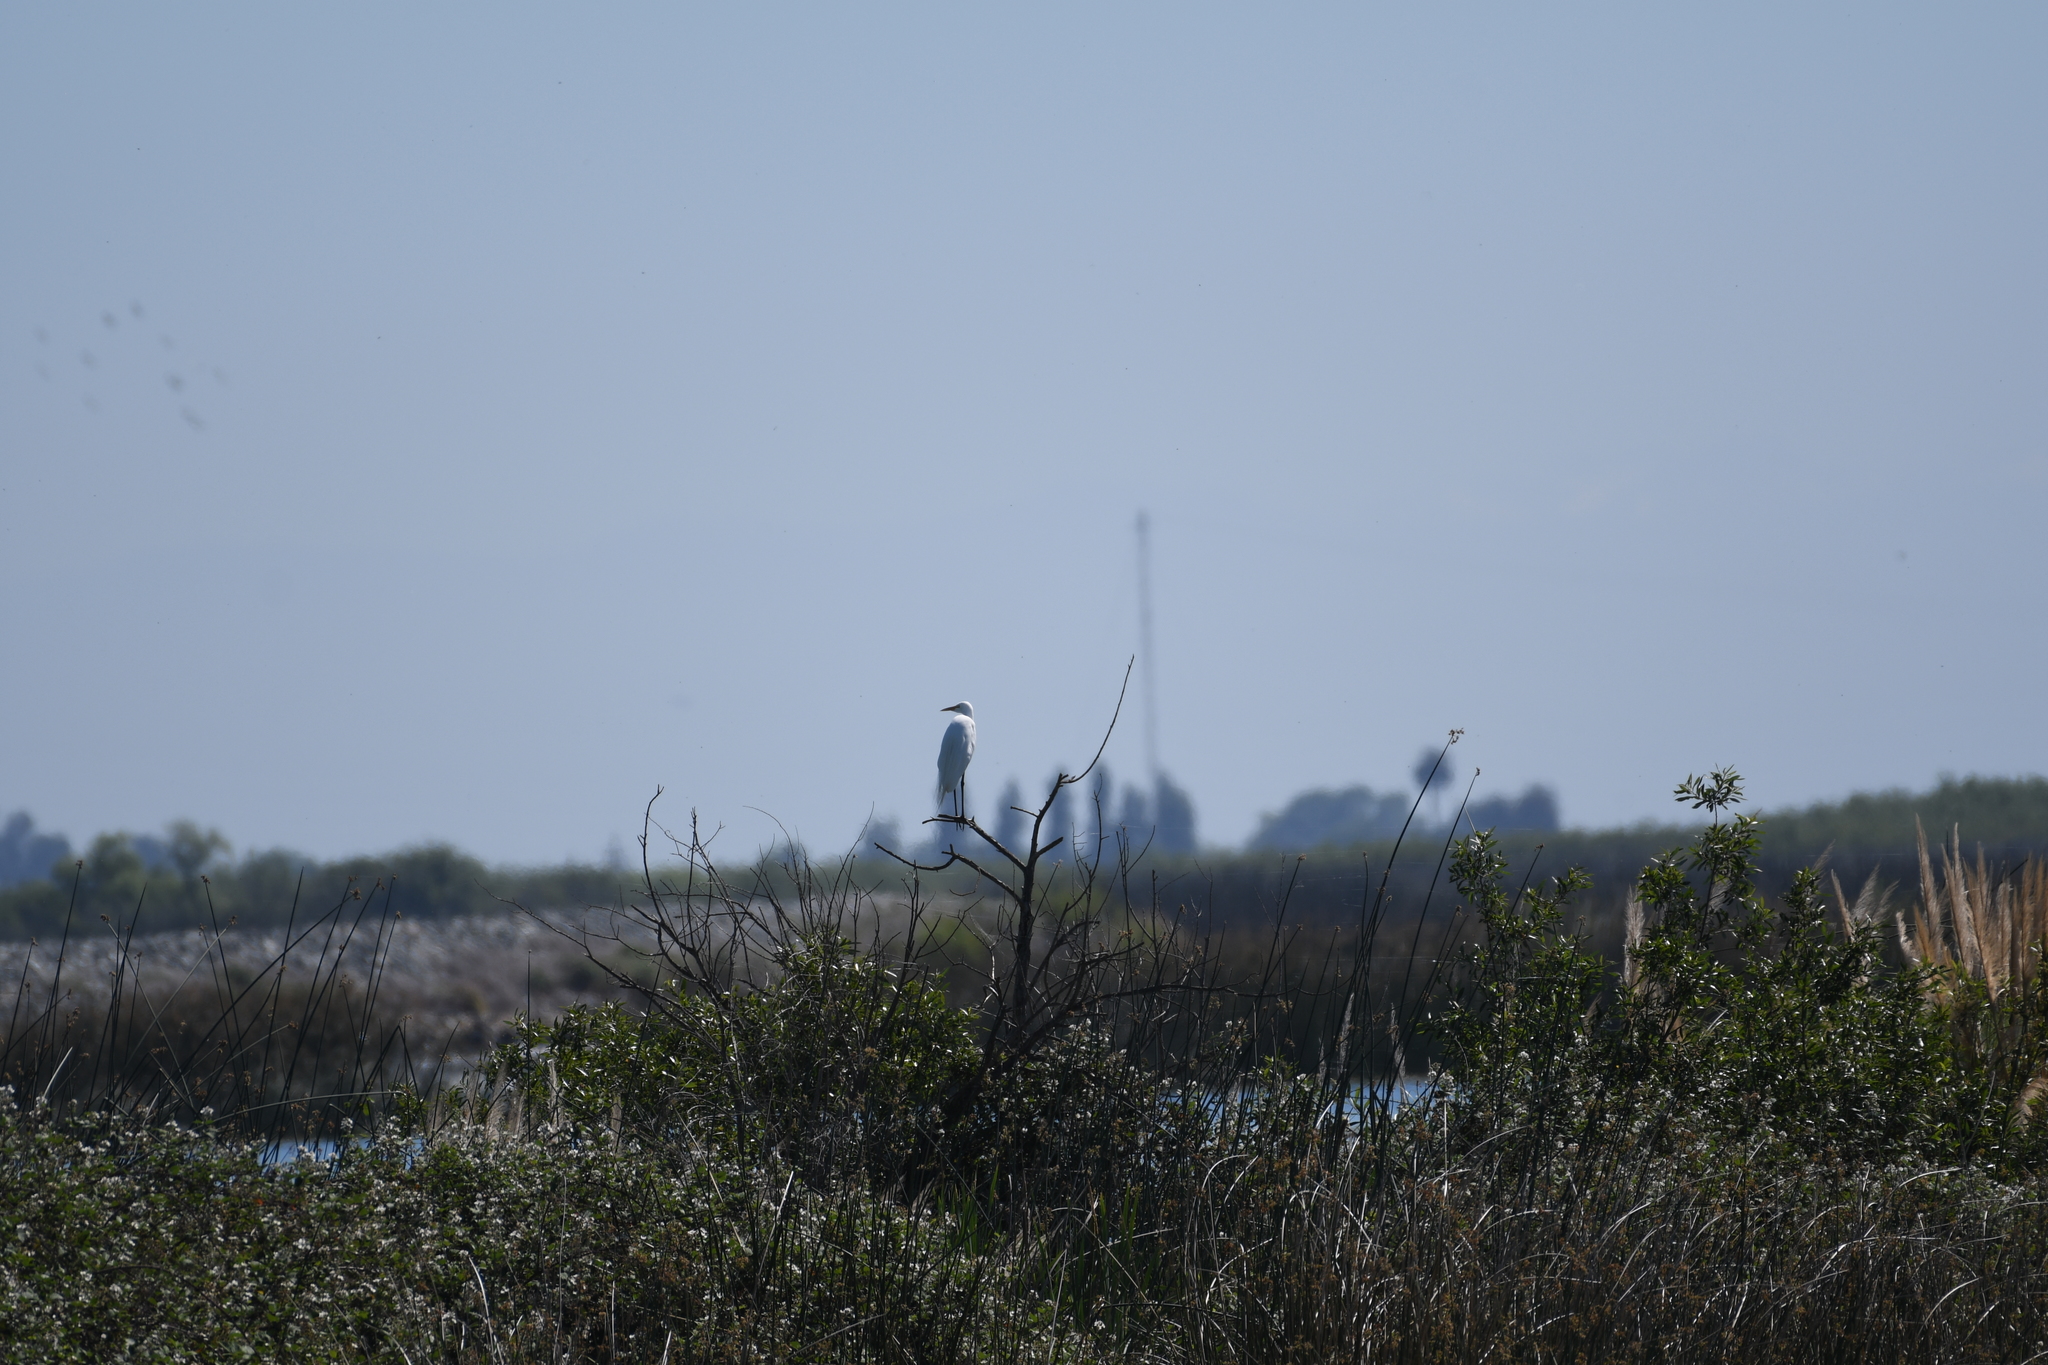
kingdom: Animalia
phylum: Chordata
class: Aves
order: Pelecaniformes
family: Ardeidae
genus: Ardea
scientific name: Ardea alba
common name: Great egret
